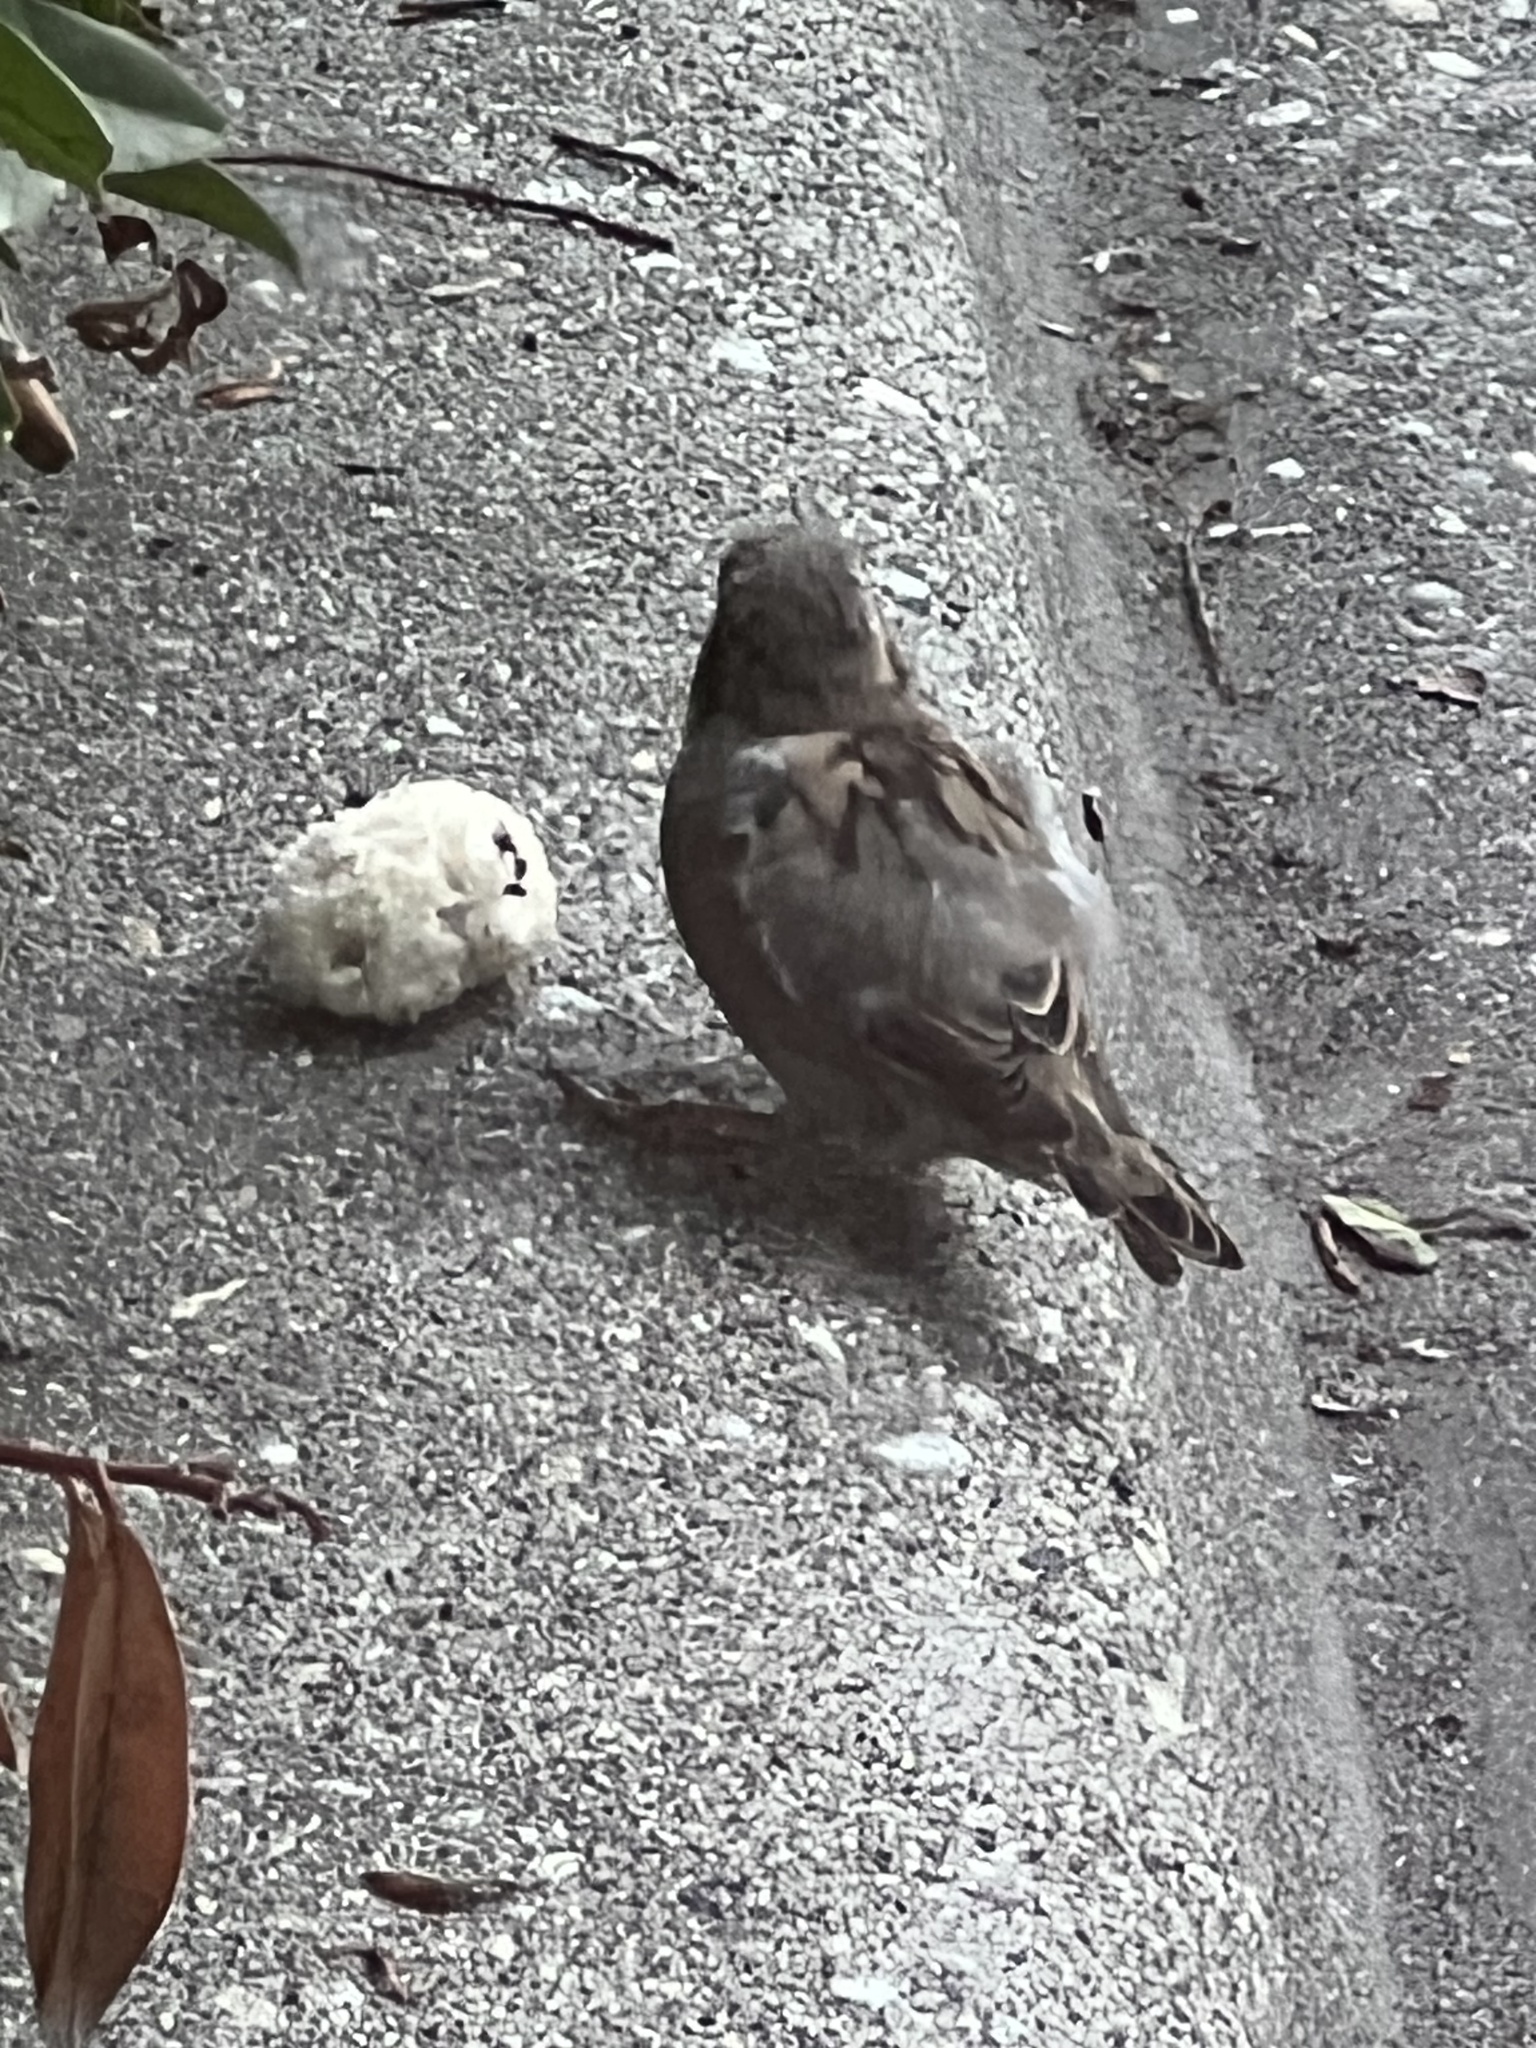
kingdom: Animalia
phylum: Chordata
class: Aves
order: Passeriformes
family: Passeridae
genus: Passer
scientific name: Passer domesticus
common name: House sparrow
